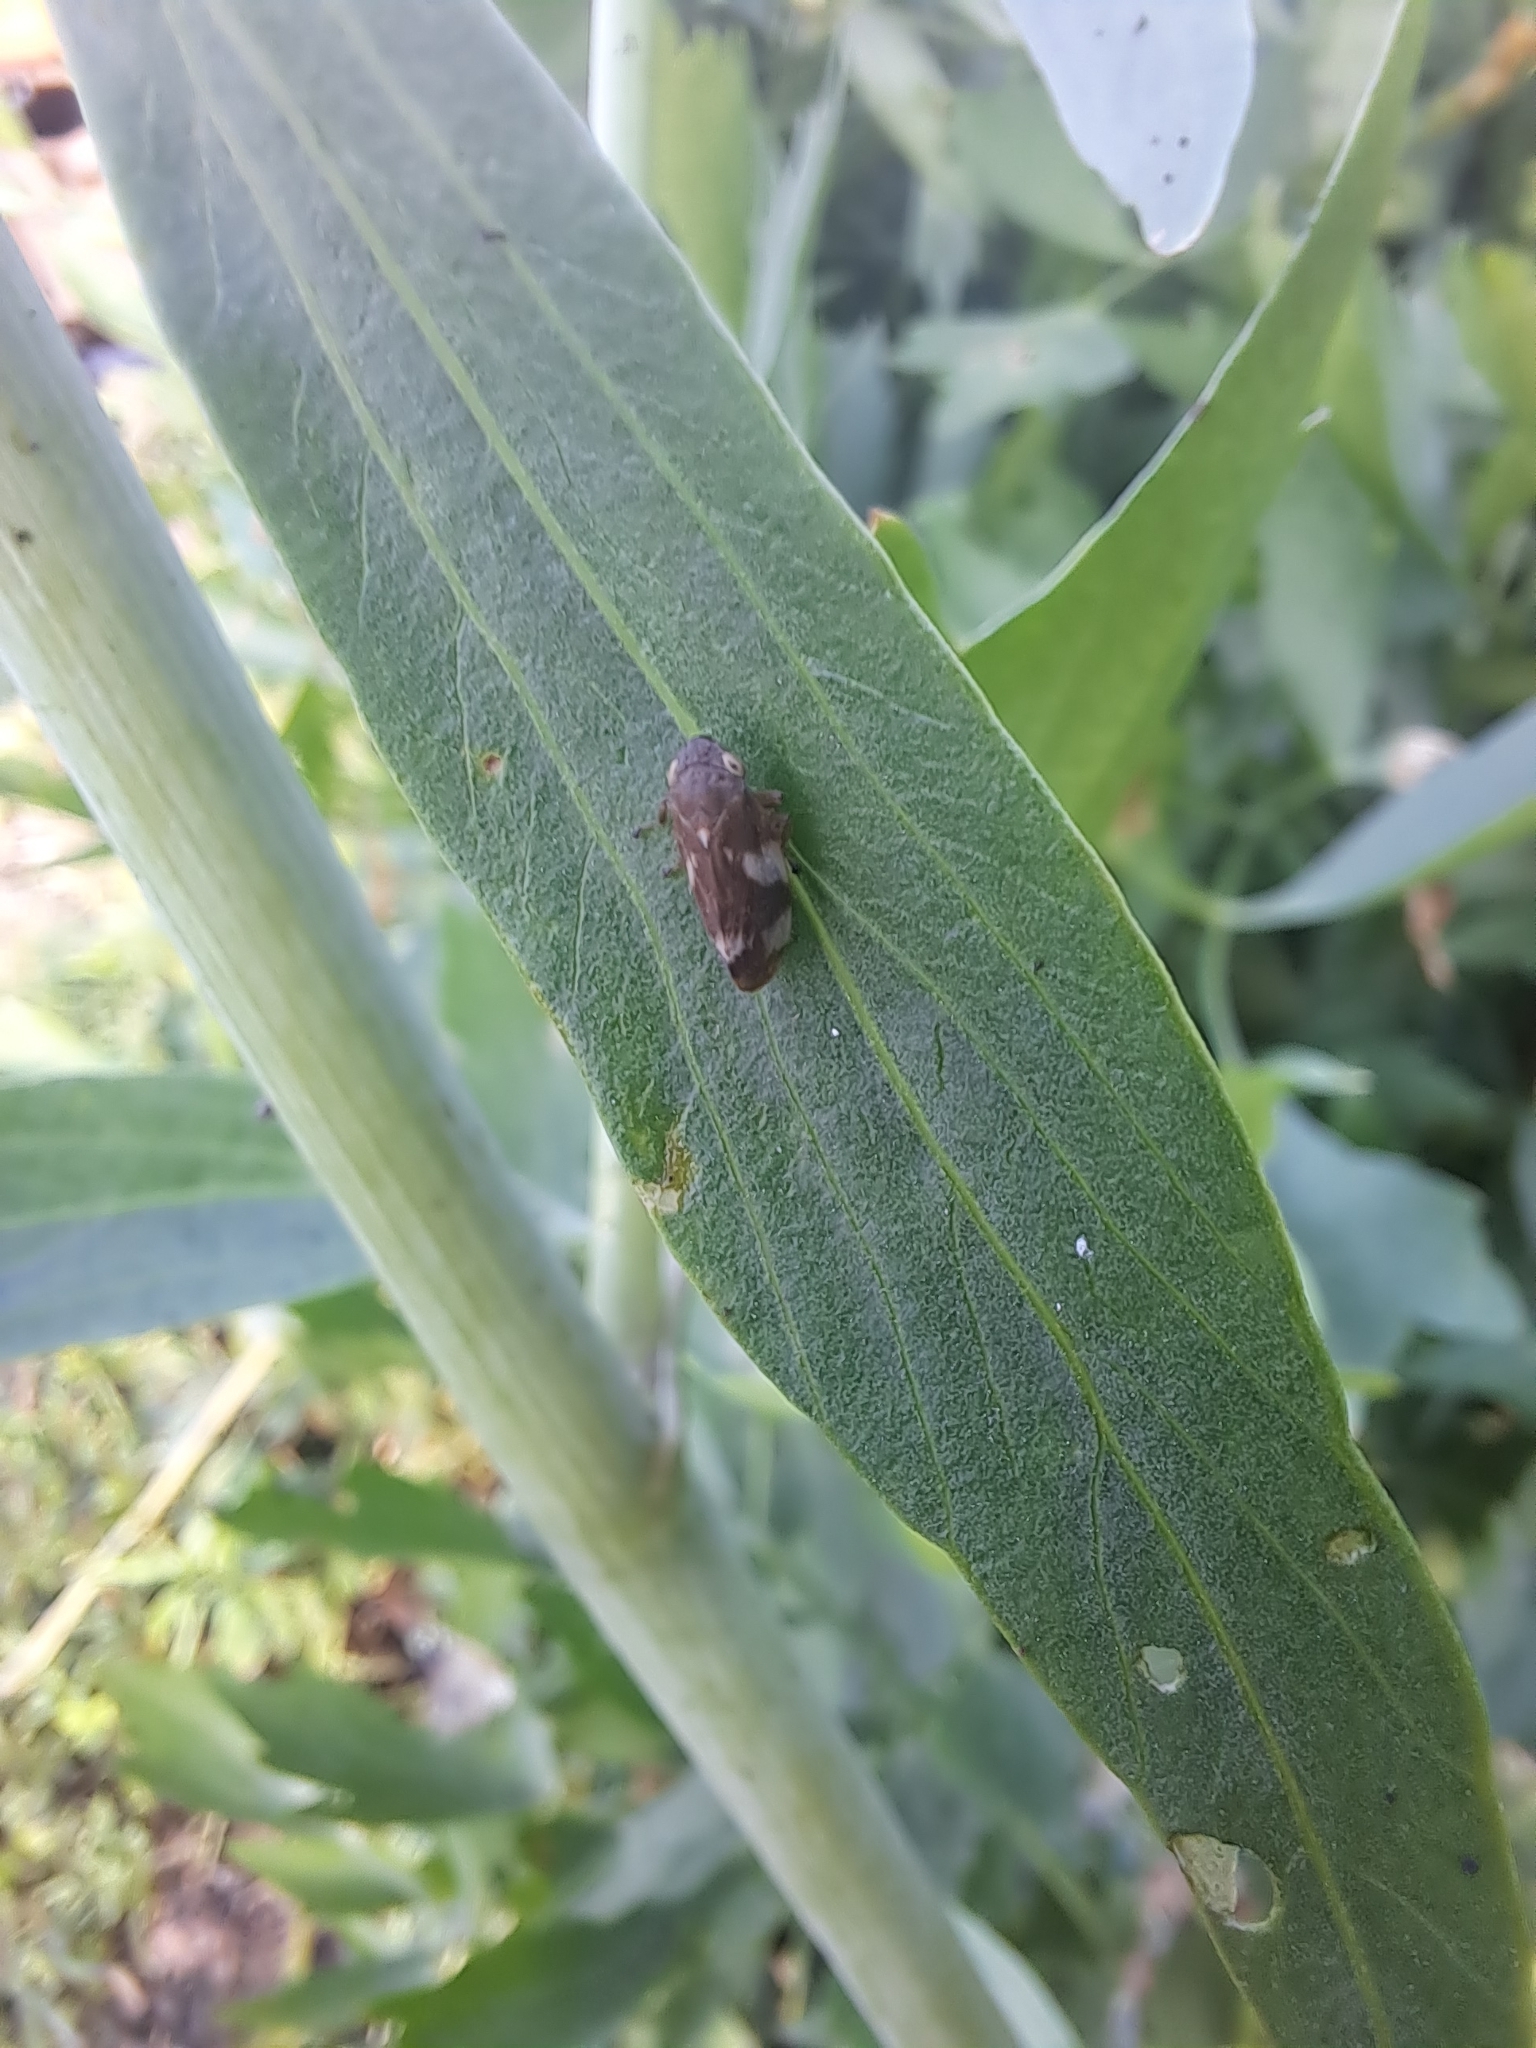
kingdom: Animalia
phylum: Arthropoda
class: Insecta
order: Hemiptera
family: Aphrophoridae
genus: Philaenus
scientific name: Philaenus spumarius
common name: Meadow spittlebug
